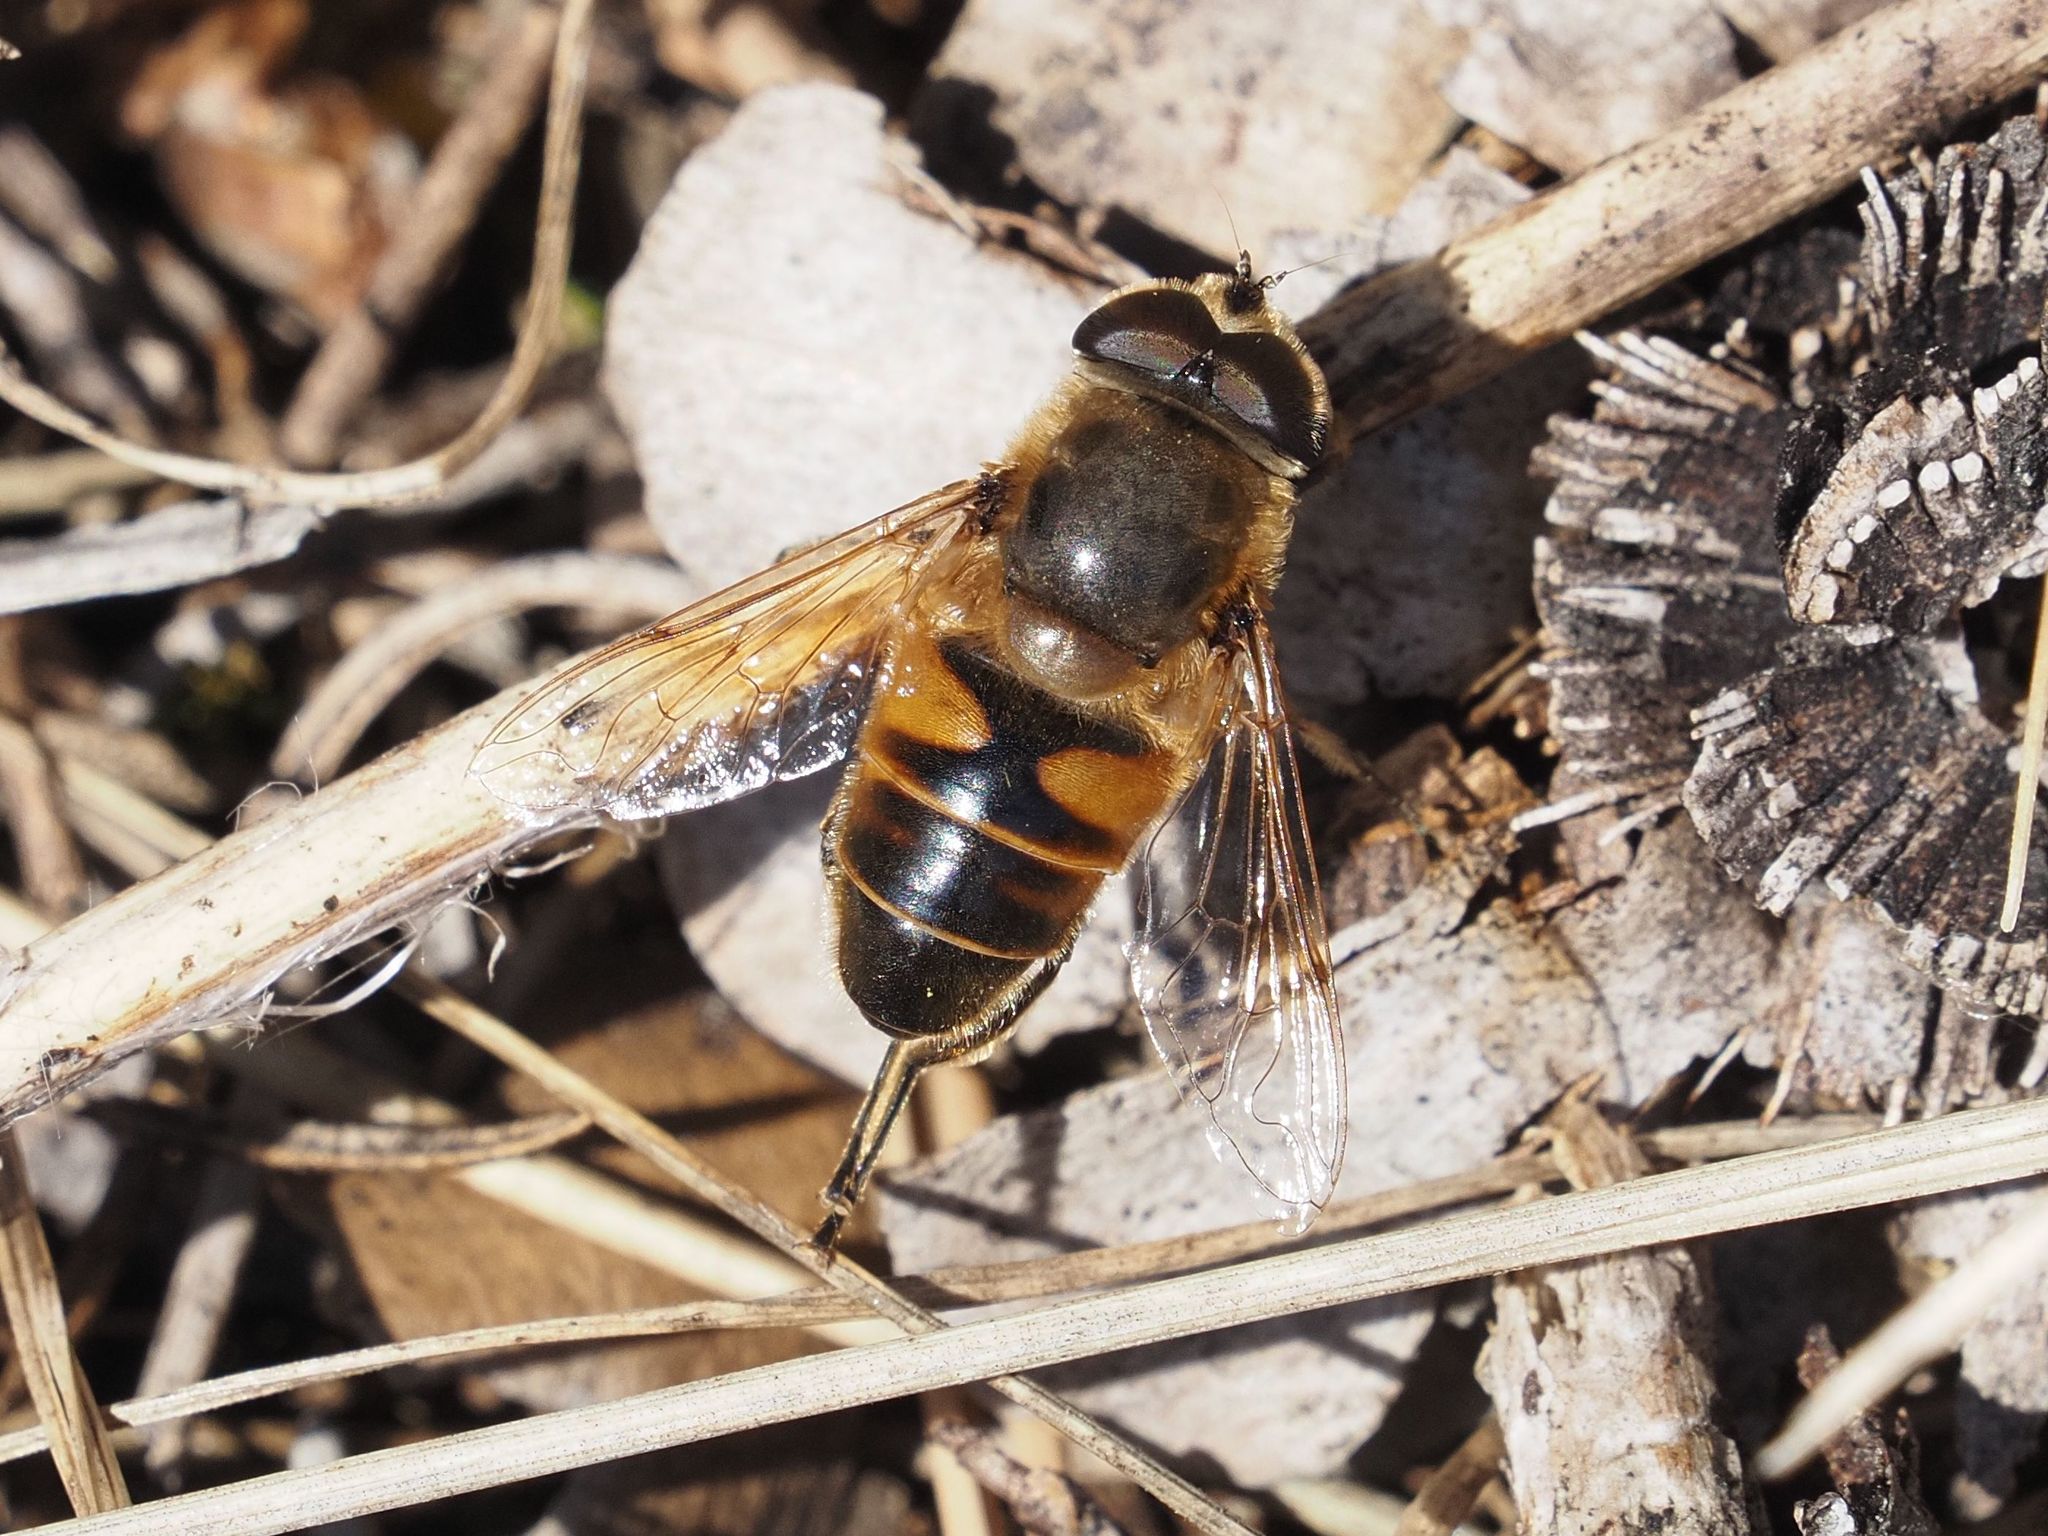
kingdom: Animalia
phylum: Arthropoda
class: Insecta
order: Diptera
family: Syrphidae
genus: Eristalis
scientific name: Eristalis tenax
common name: Drone fly
